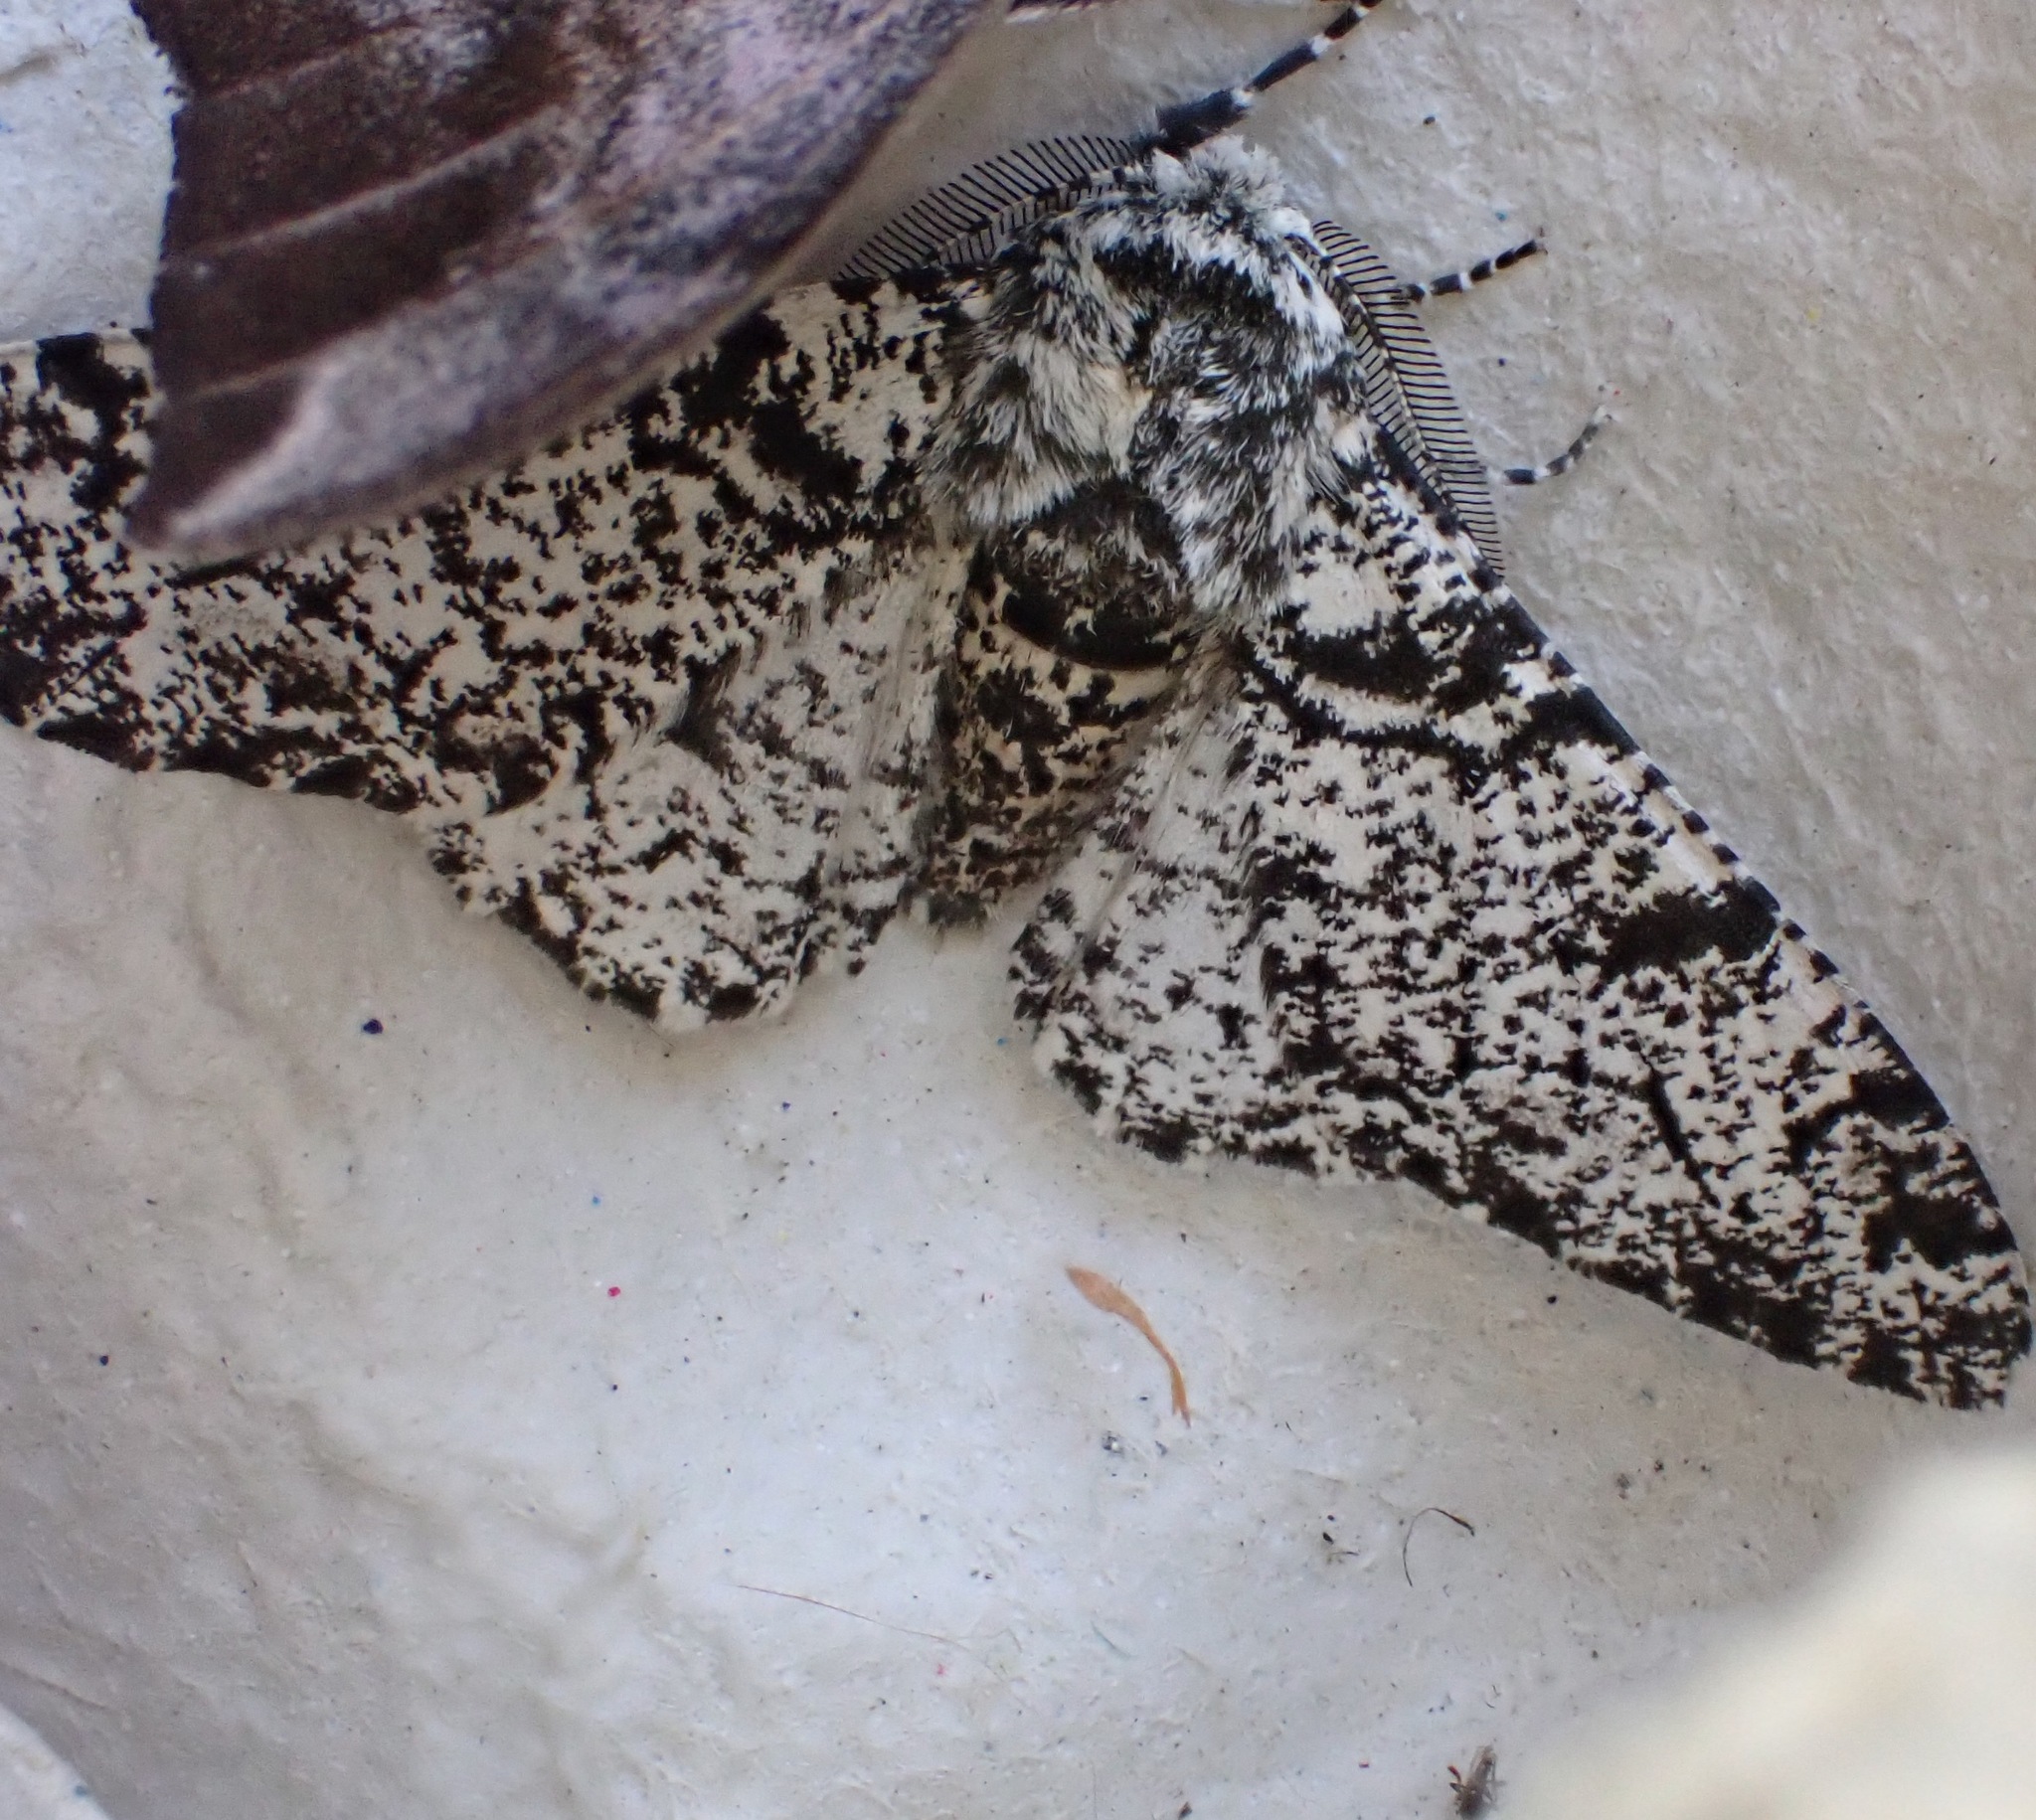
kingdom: Animalia
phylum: Arthropoda
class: Insecta
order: Lepidoptera
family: Geometridae
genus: Biston
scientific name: Biston betularia
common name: Peppered moth
